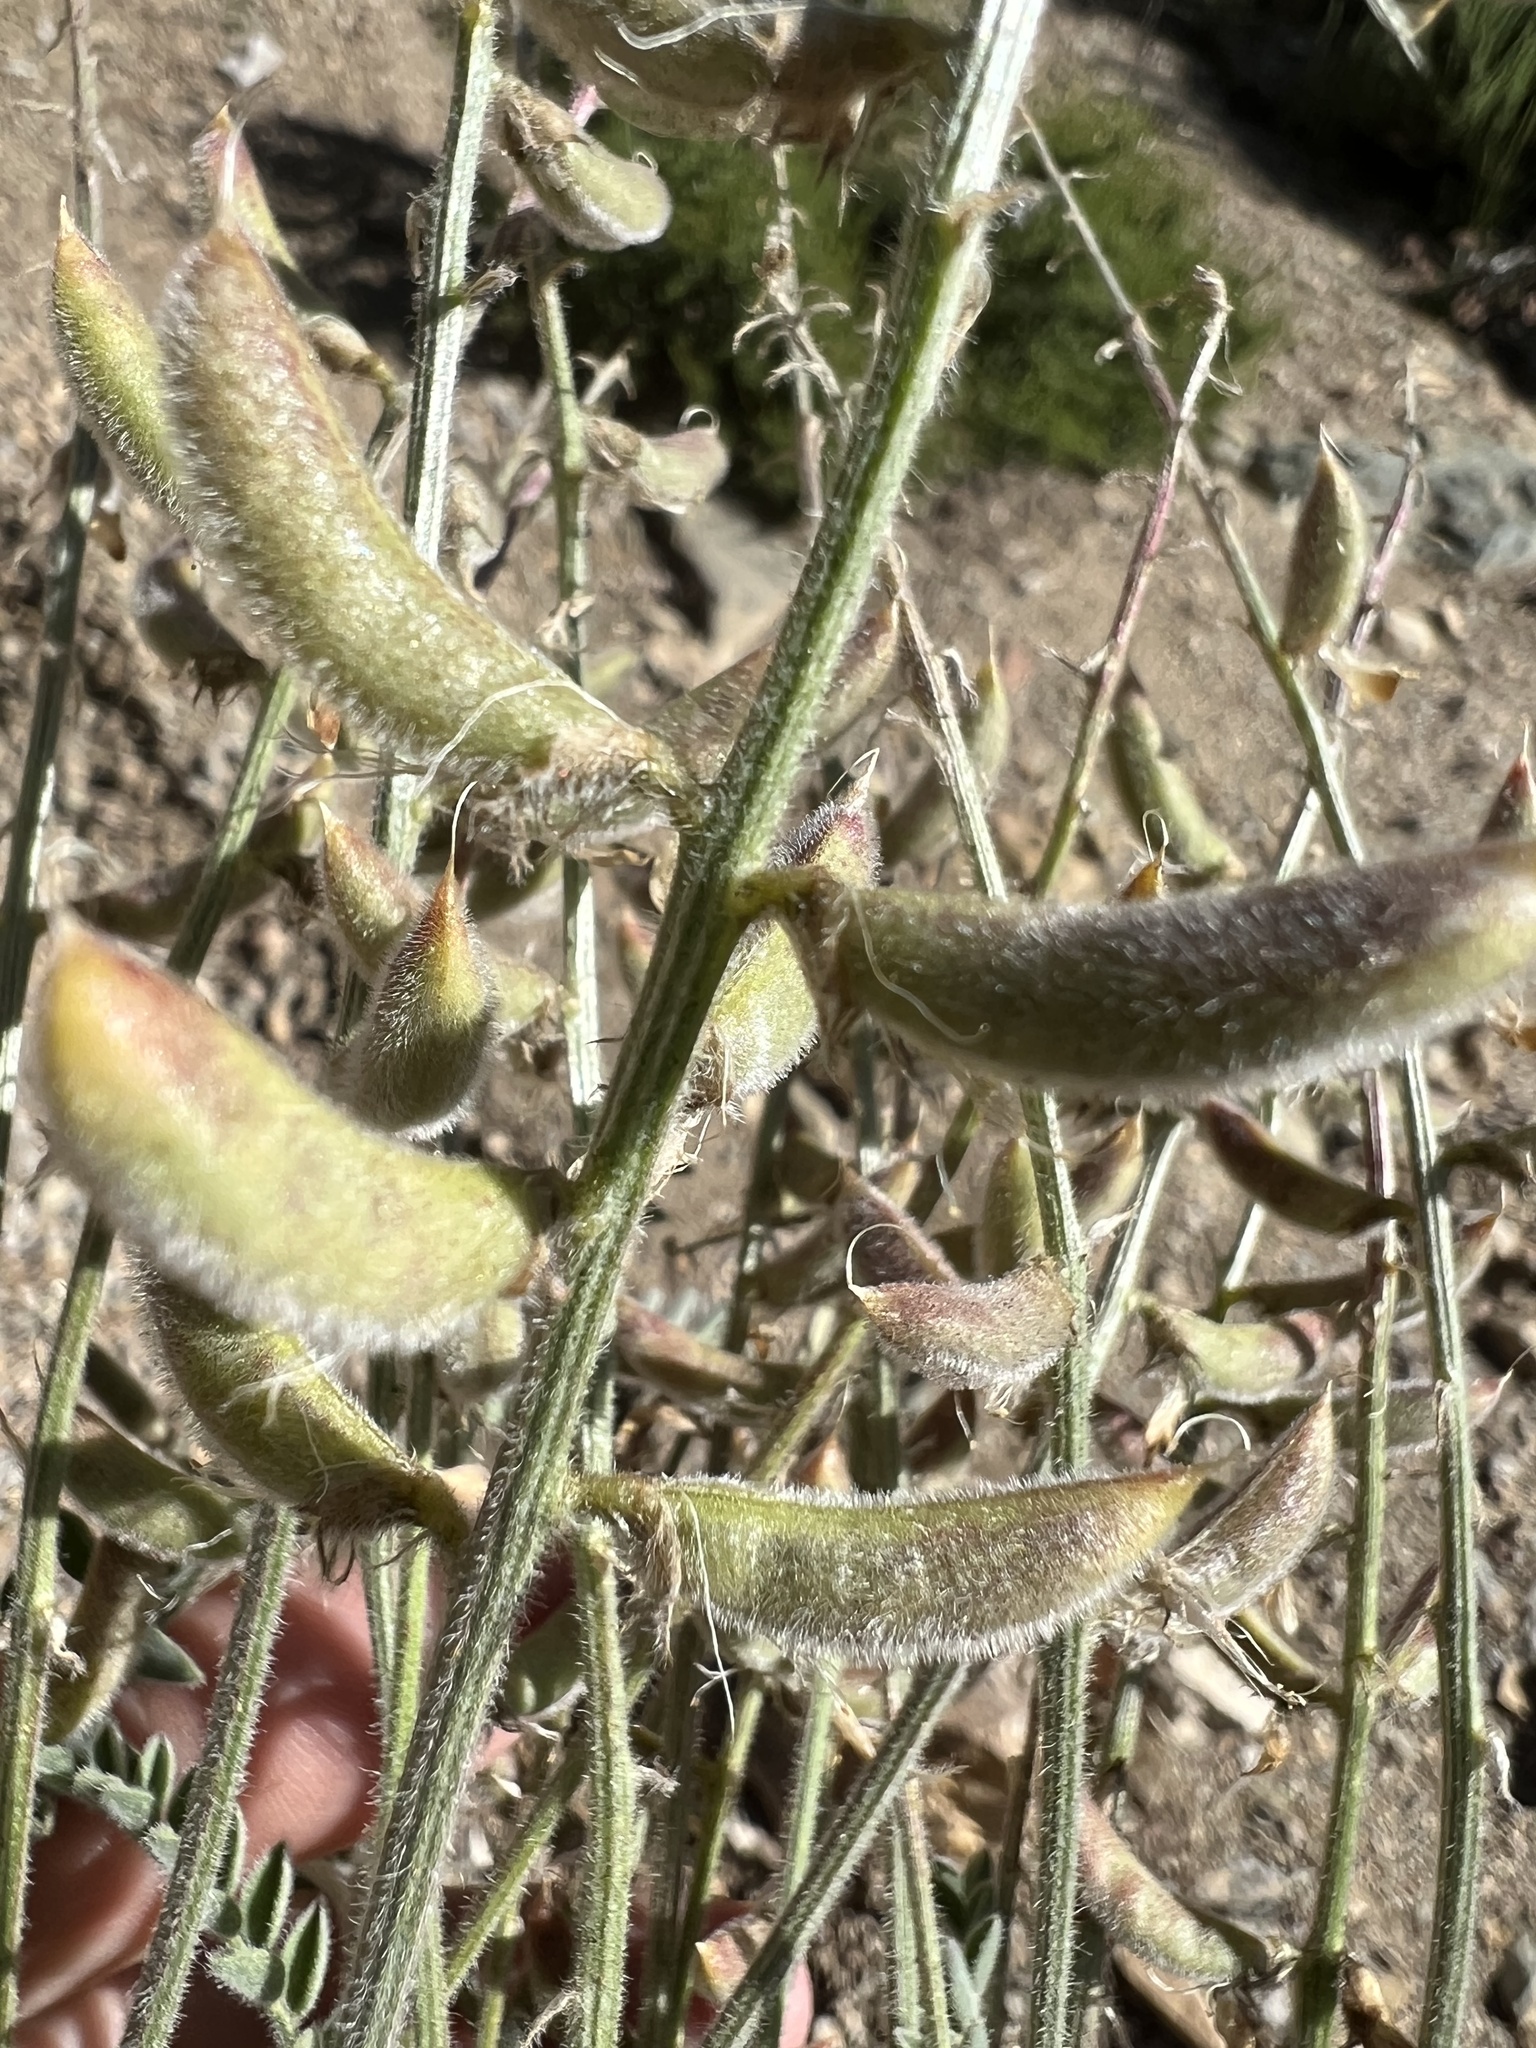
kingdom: Plantae
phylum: Tracheophyta
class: Magnoliopsida
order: Fabales
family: Fabaceae
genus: Astragalus
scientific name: Astragalus minthorniae
